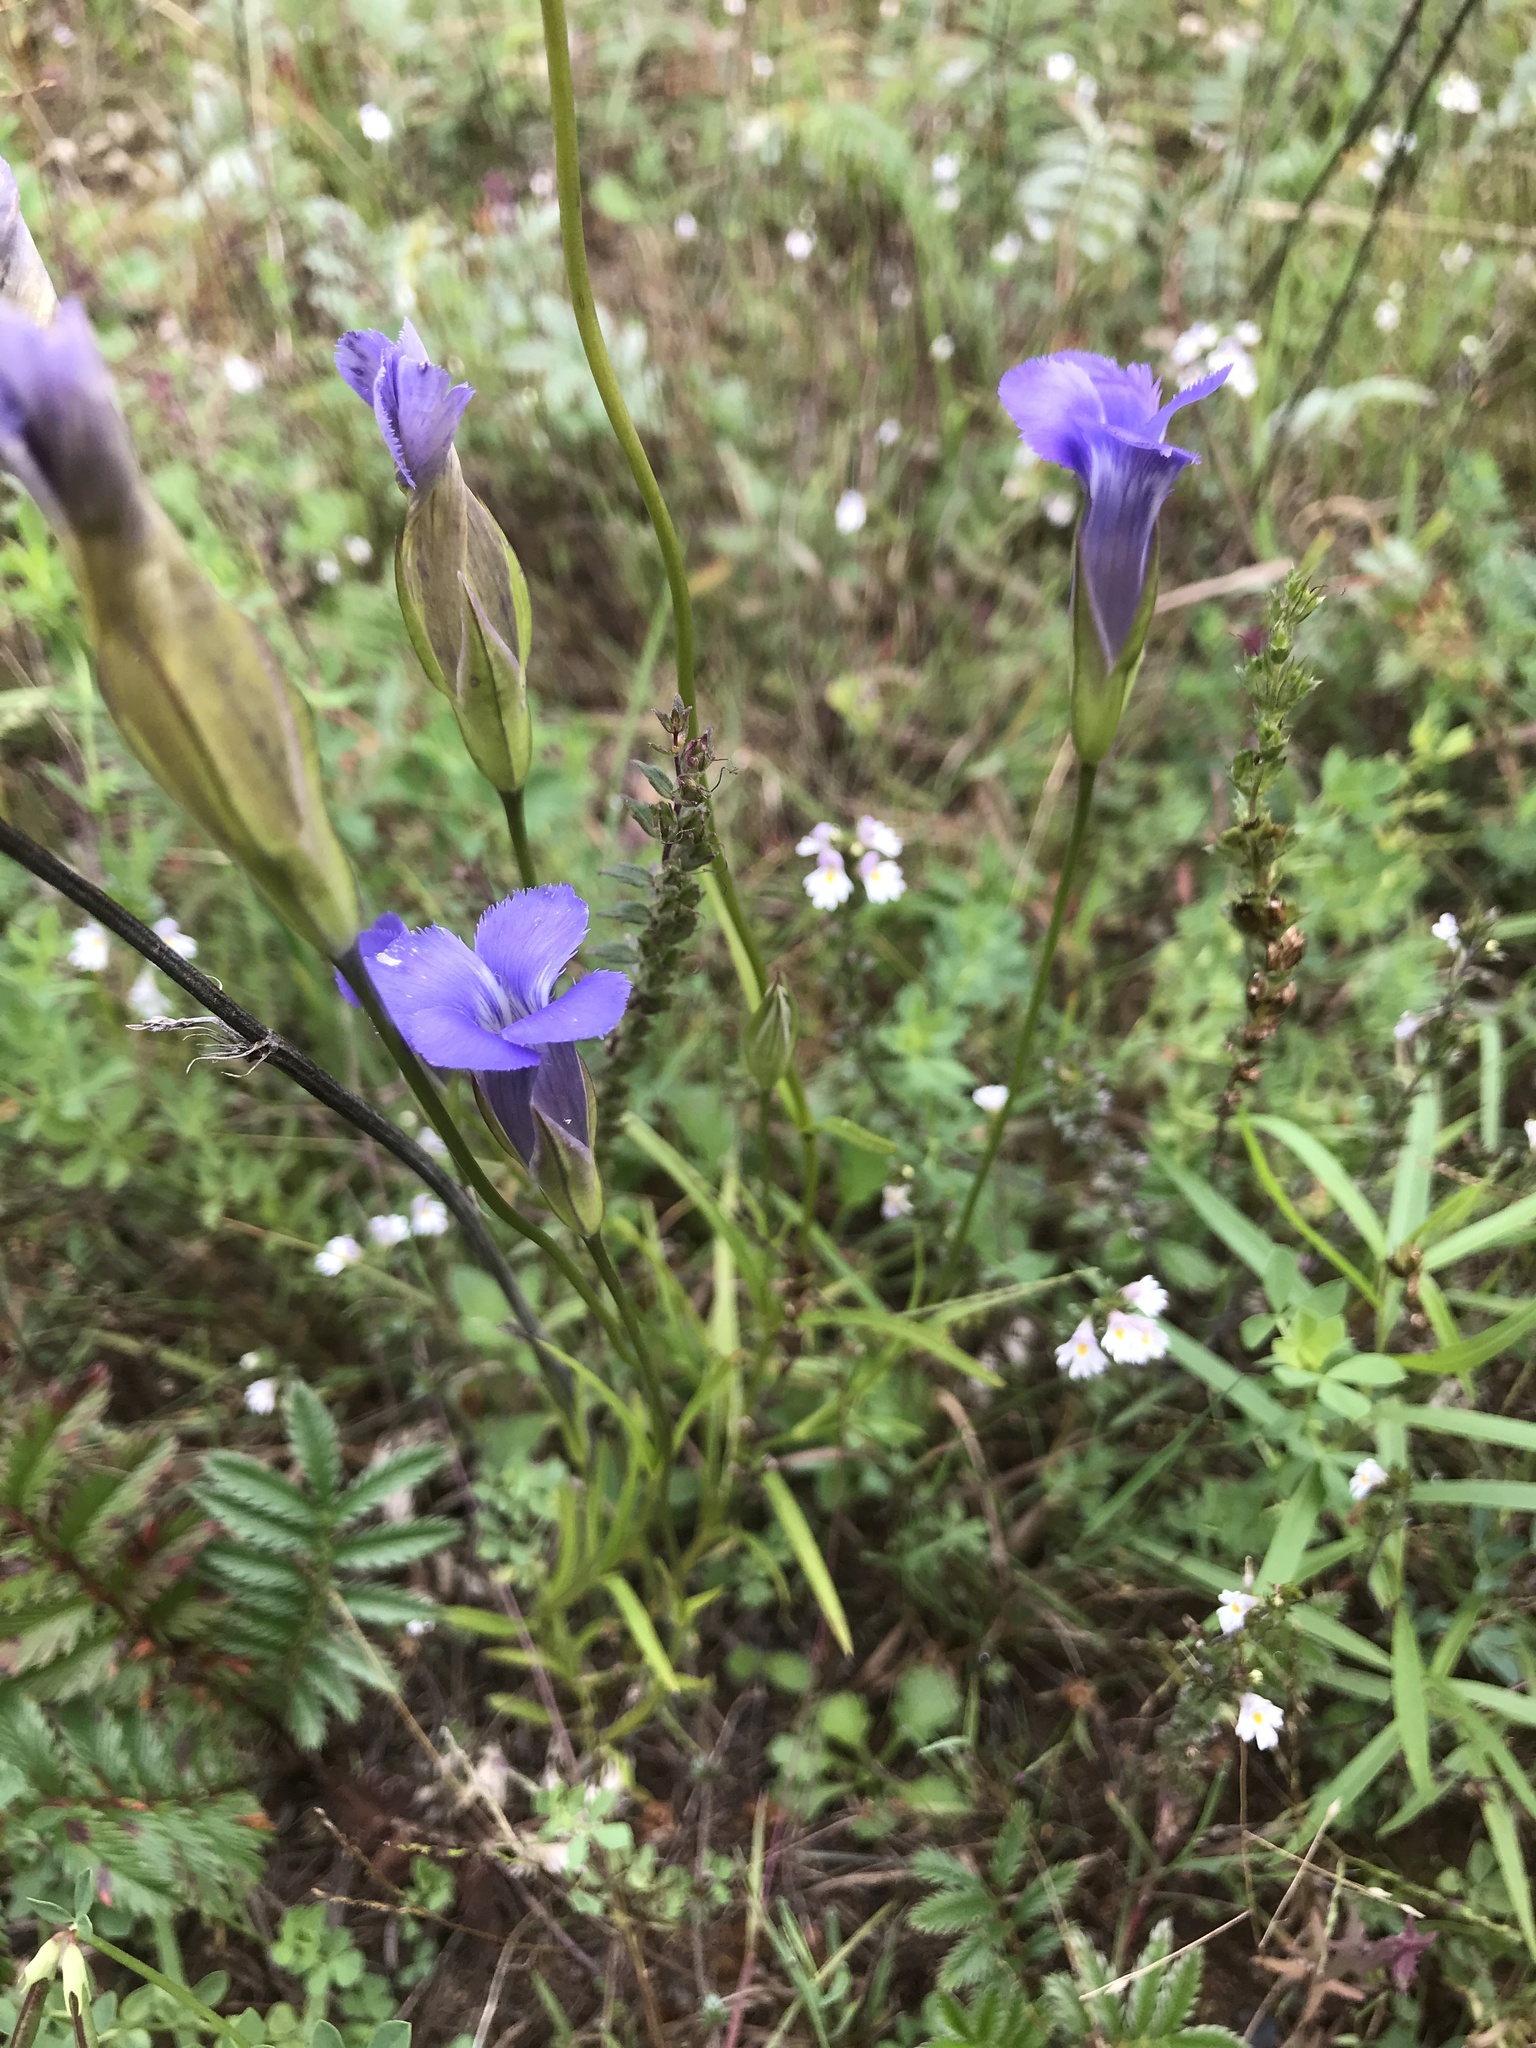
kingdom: Plantae
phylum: Tracheophyta
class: Magnoliopsida
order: Gentianales
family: Gentianaceae
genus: Gentianopsis
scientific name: Gentianopsis virgata
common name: Lesser fringed-gentian
